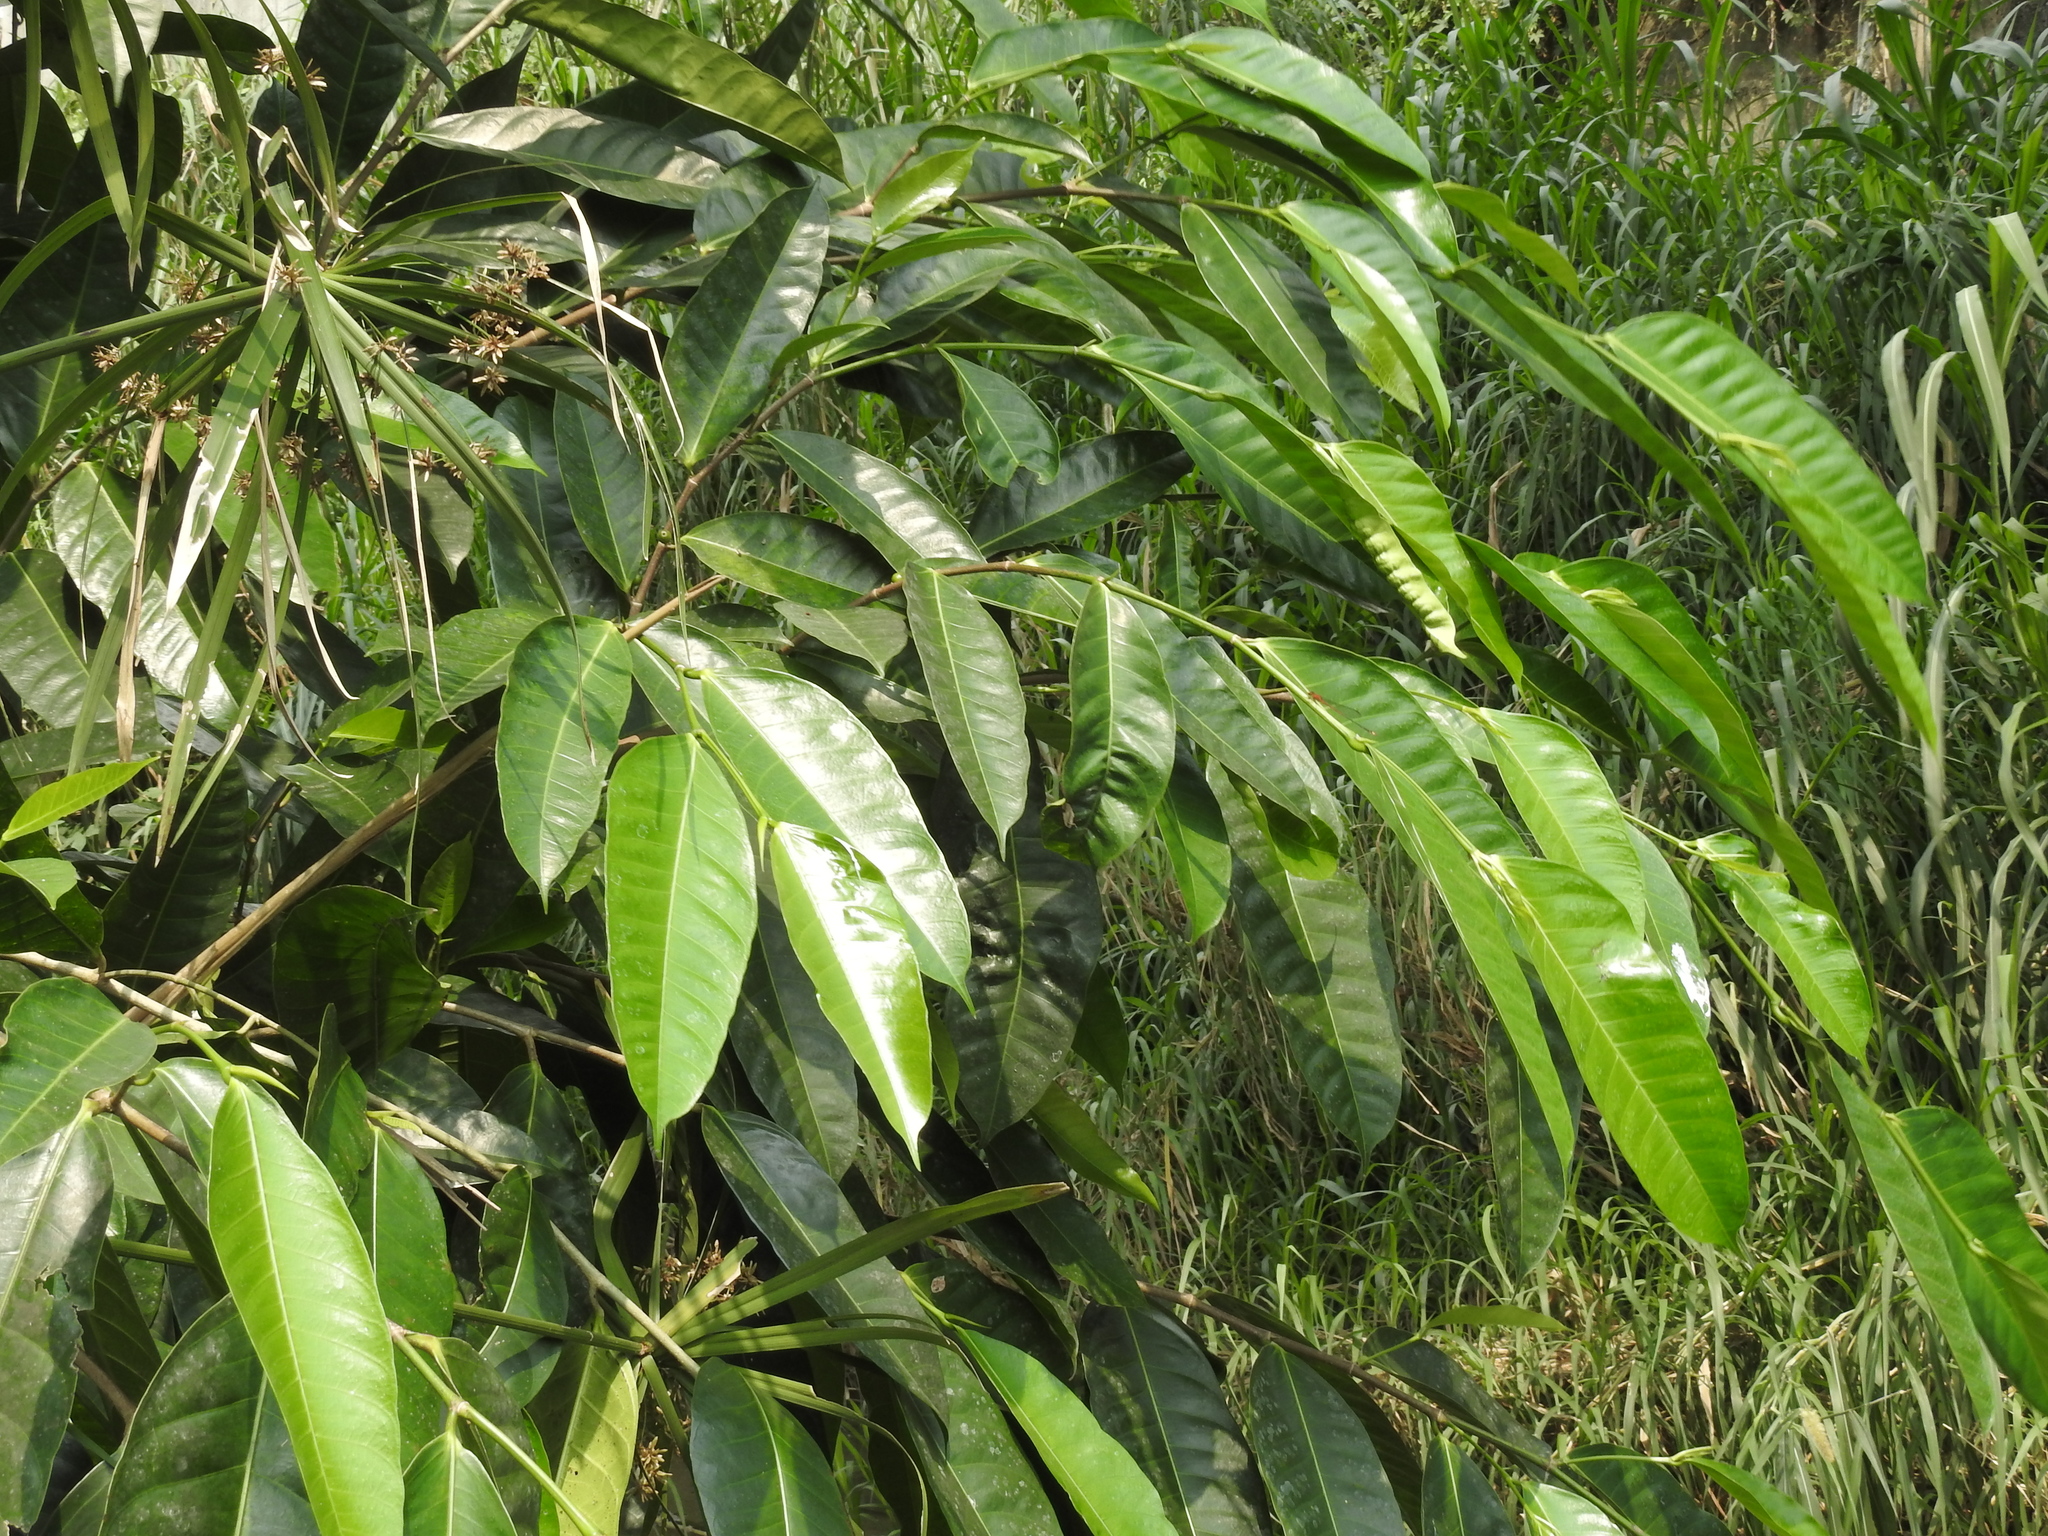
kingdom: Plantae
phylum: Tracheophyta
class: Magnoliopsida
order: Rosales
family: Moraceae
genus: Ficus
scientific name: Ficus virgata
